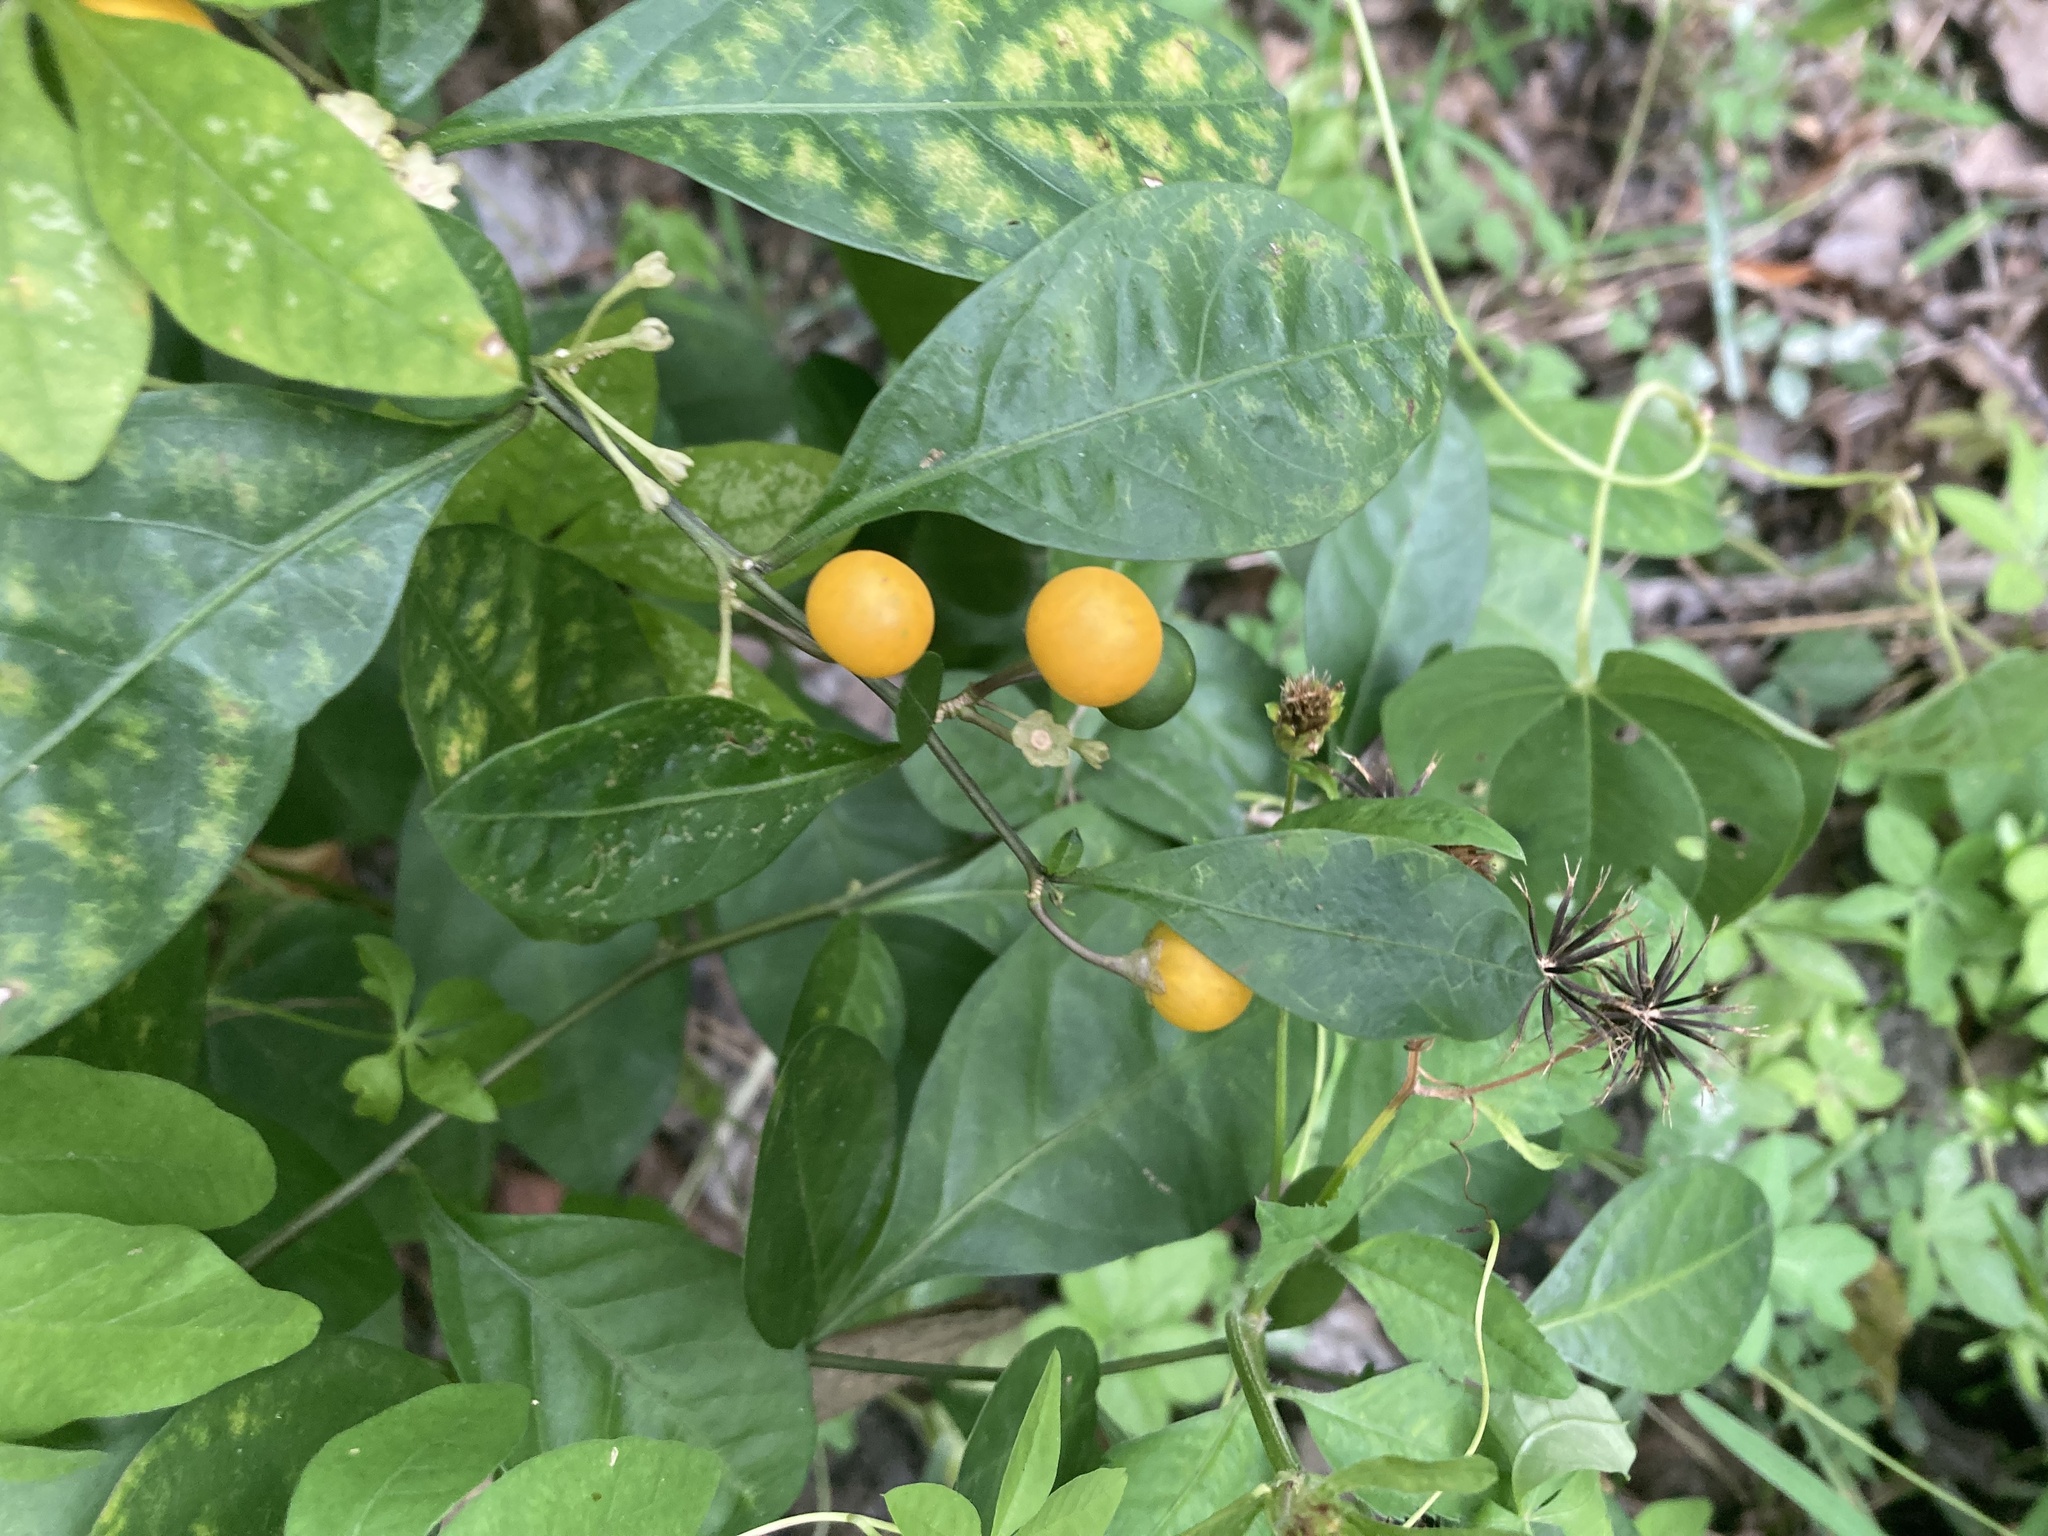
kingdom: Plantae
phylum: Tracheophyta
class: Magnoliopsida
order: Solanales
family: Solanaceae
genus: Solanum
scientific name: Solanum diphyllum
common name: Twoleaf nightshade
